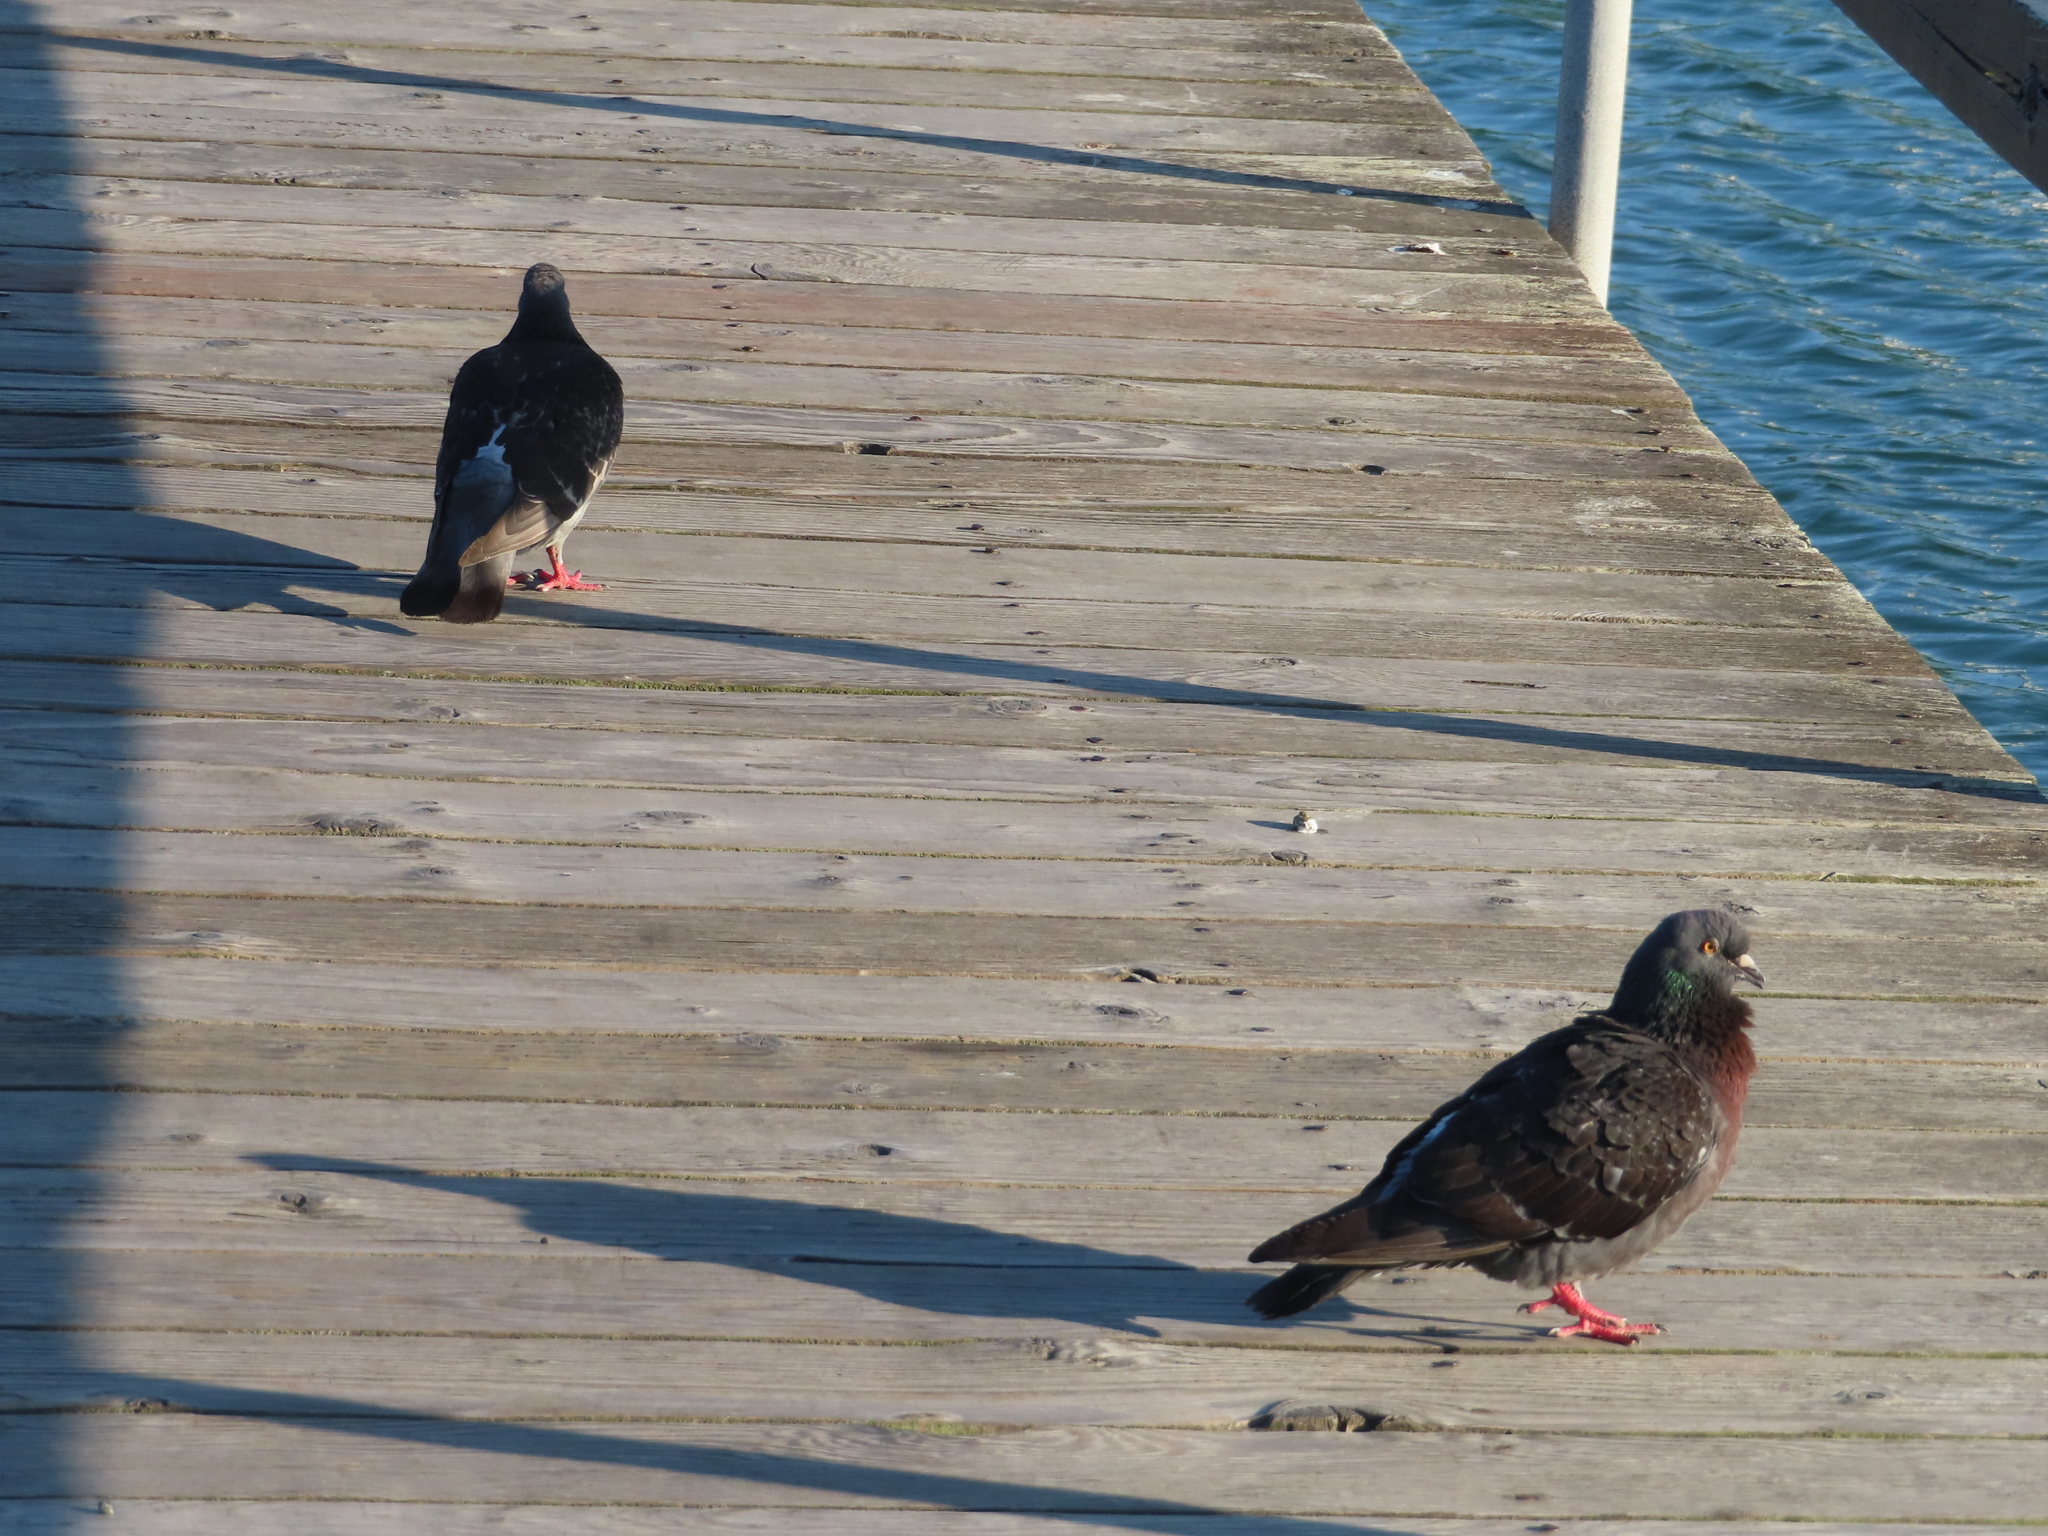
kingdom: Animalia
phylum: Chordata
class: Aves
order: Columbiformes
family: Columbidae
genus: Columba
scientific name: Columba livia
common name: Rock pigeon
